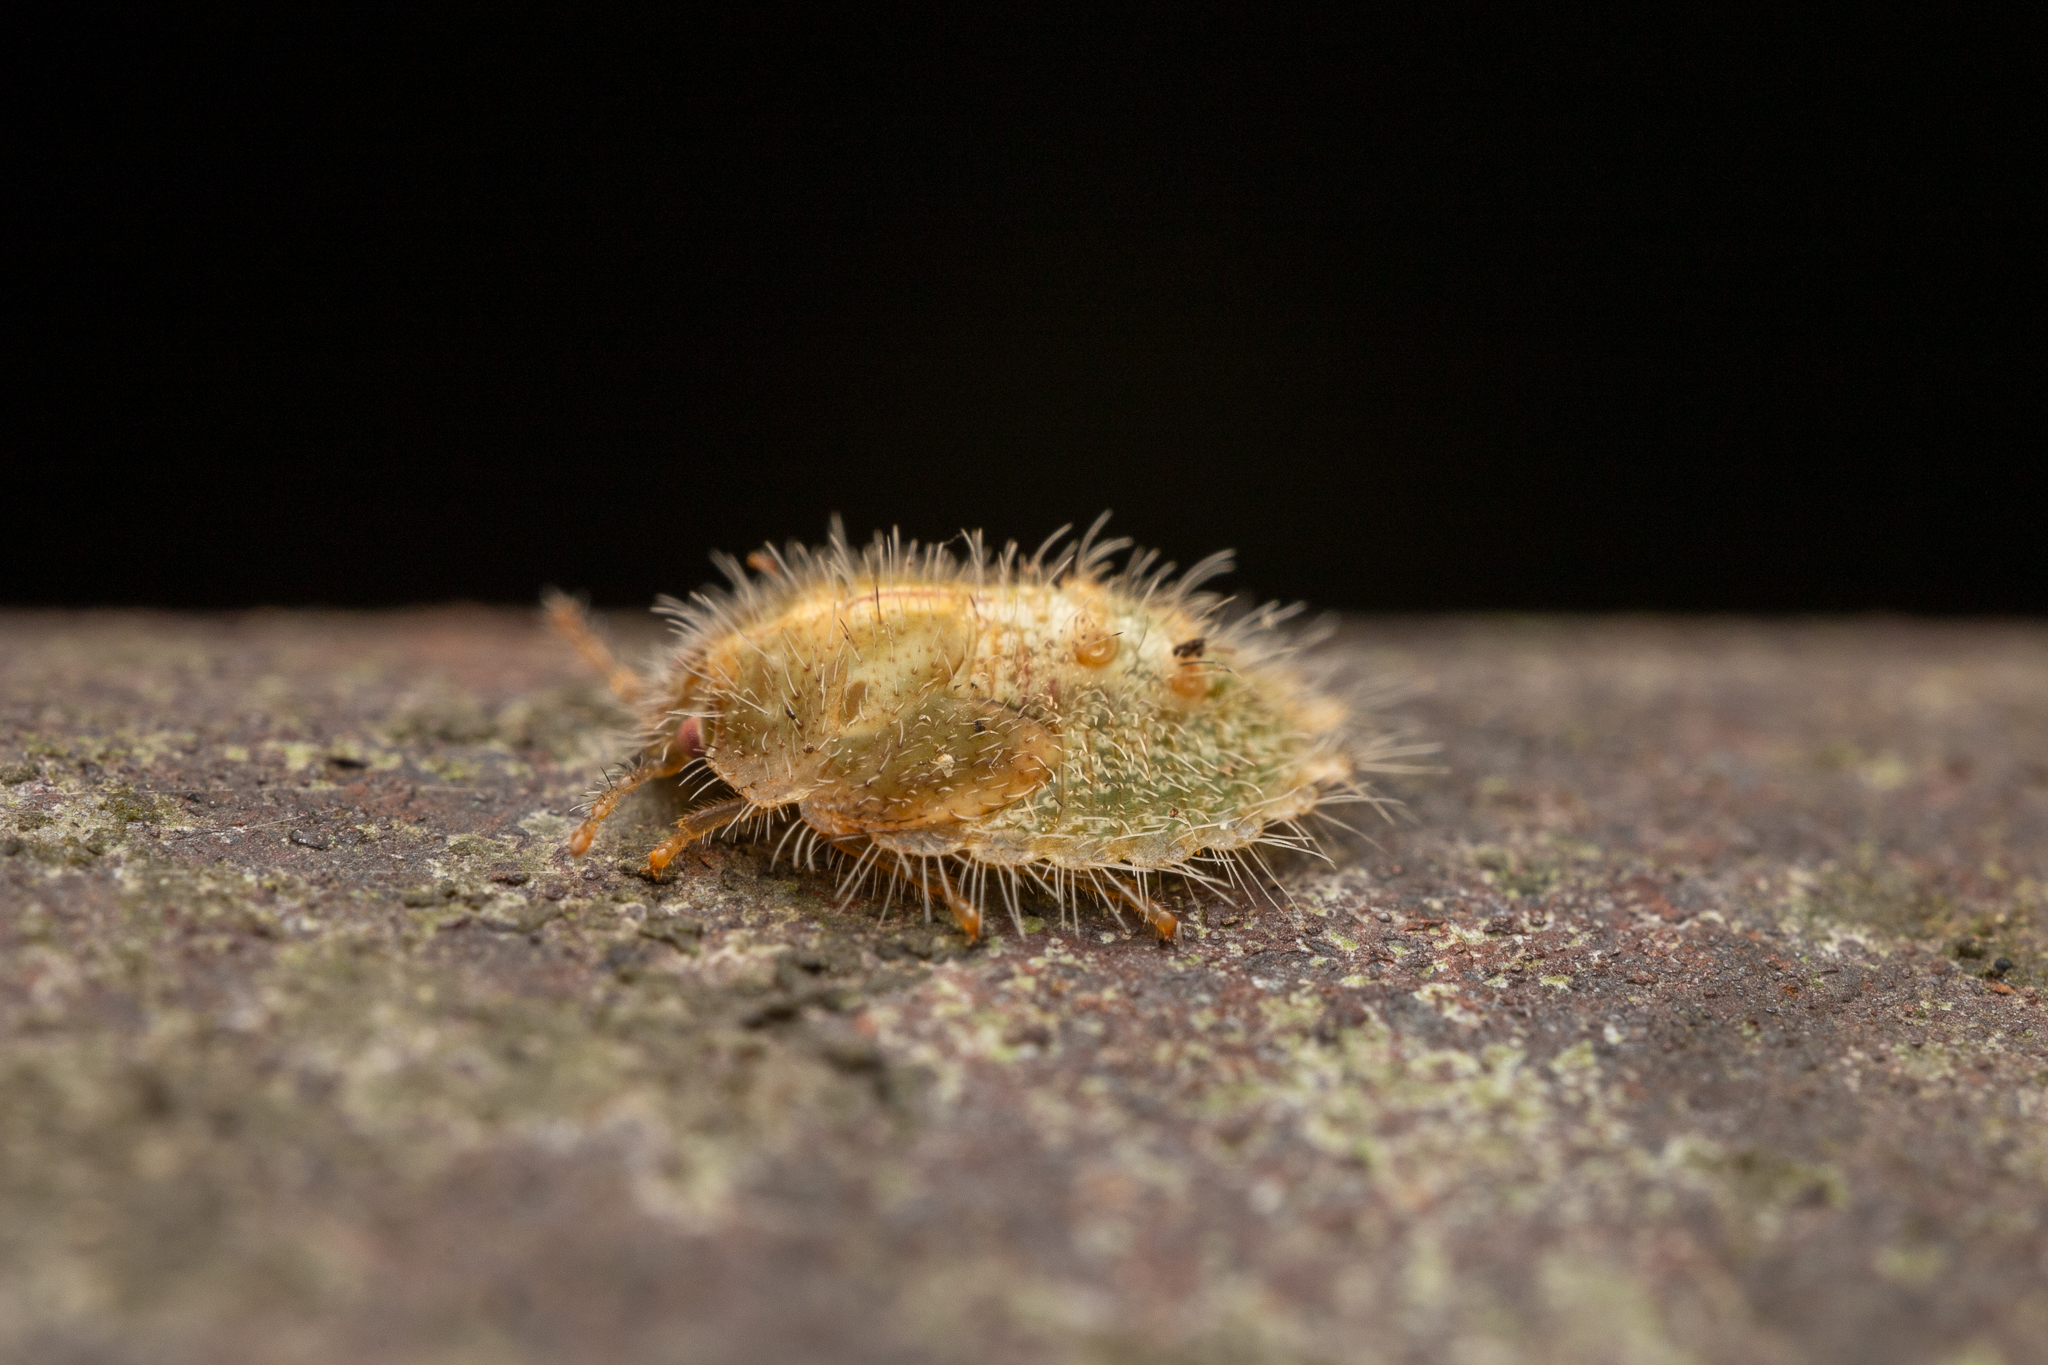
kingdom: Animalia
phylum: Arthropoda
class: Insecta
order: Hemiptera
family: Plataspidae
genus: Megacopta
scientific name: Megacopta cribraria
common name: Bean plataspid
